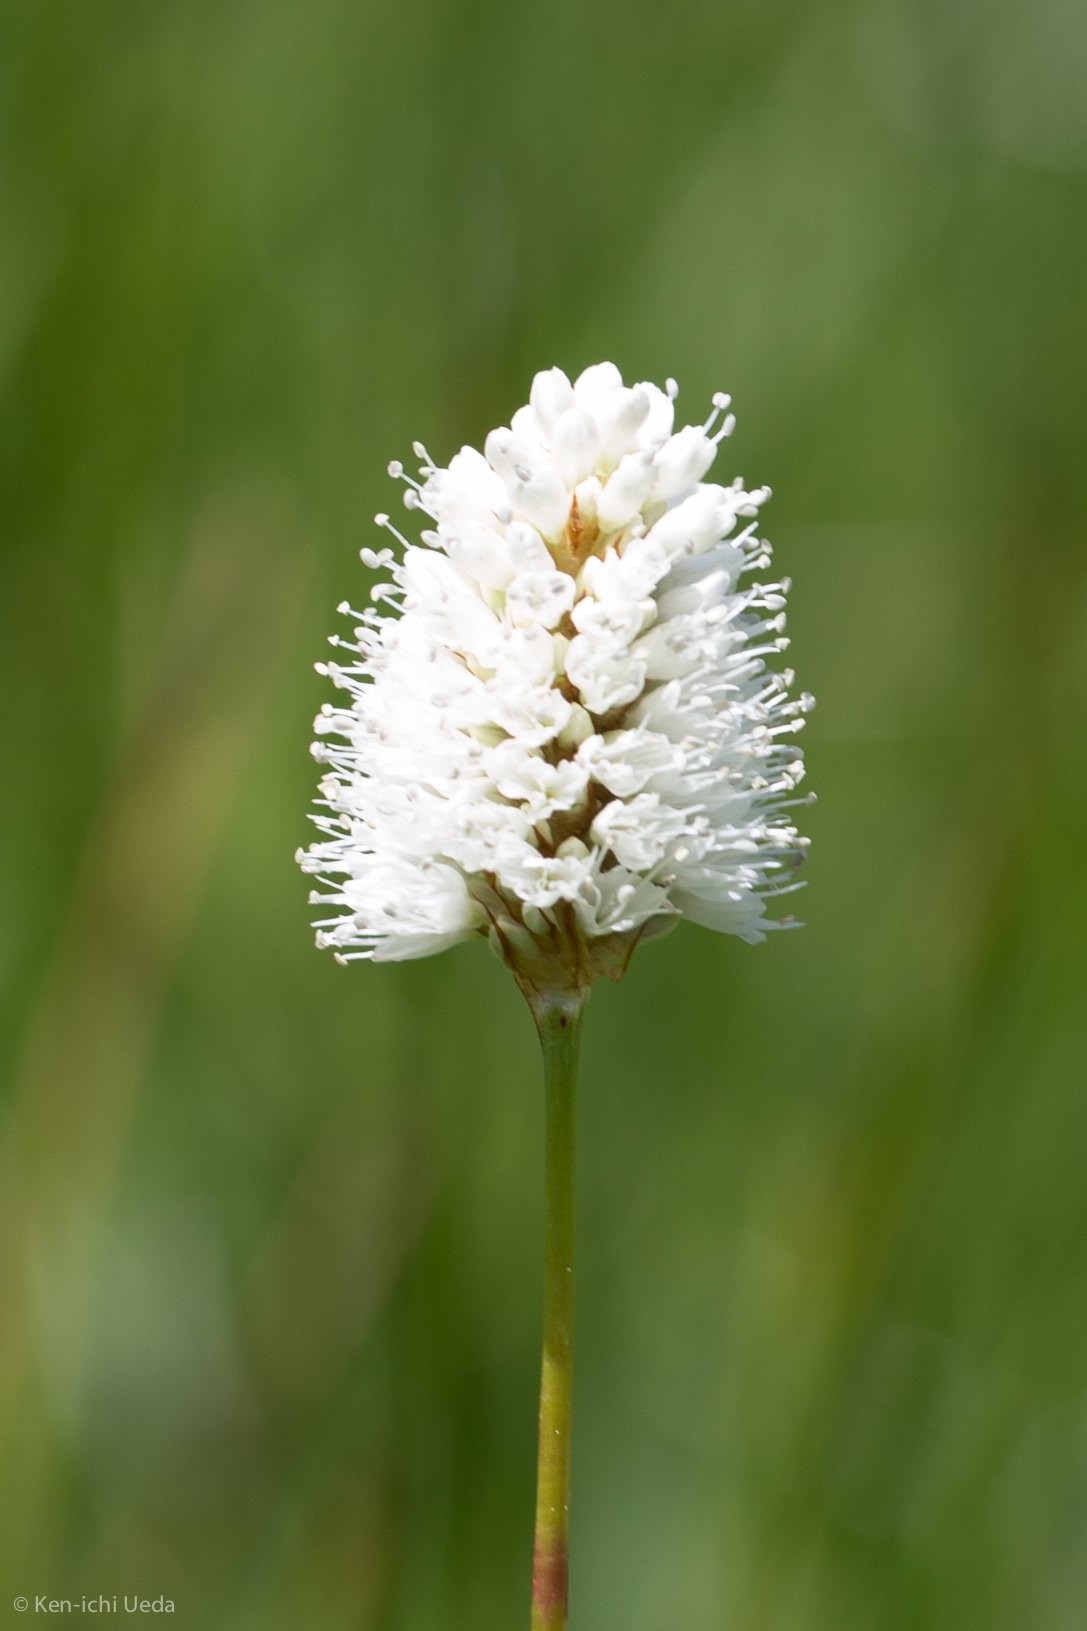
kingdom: Plantae
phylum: Tracheophyta
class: Magnoliopsida
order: Caryophyllales
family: Polygonaceae
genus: Bistorta
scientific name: Bistorta bistortoides
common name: American bistort
